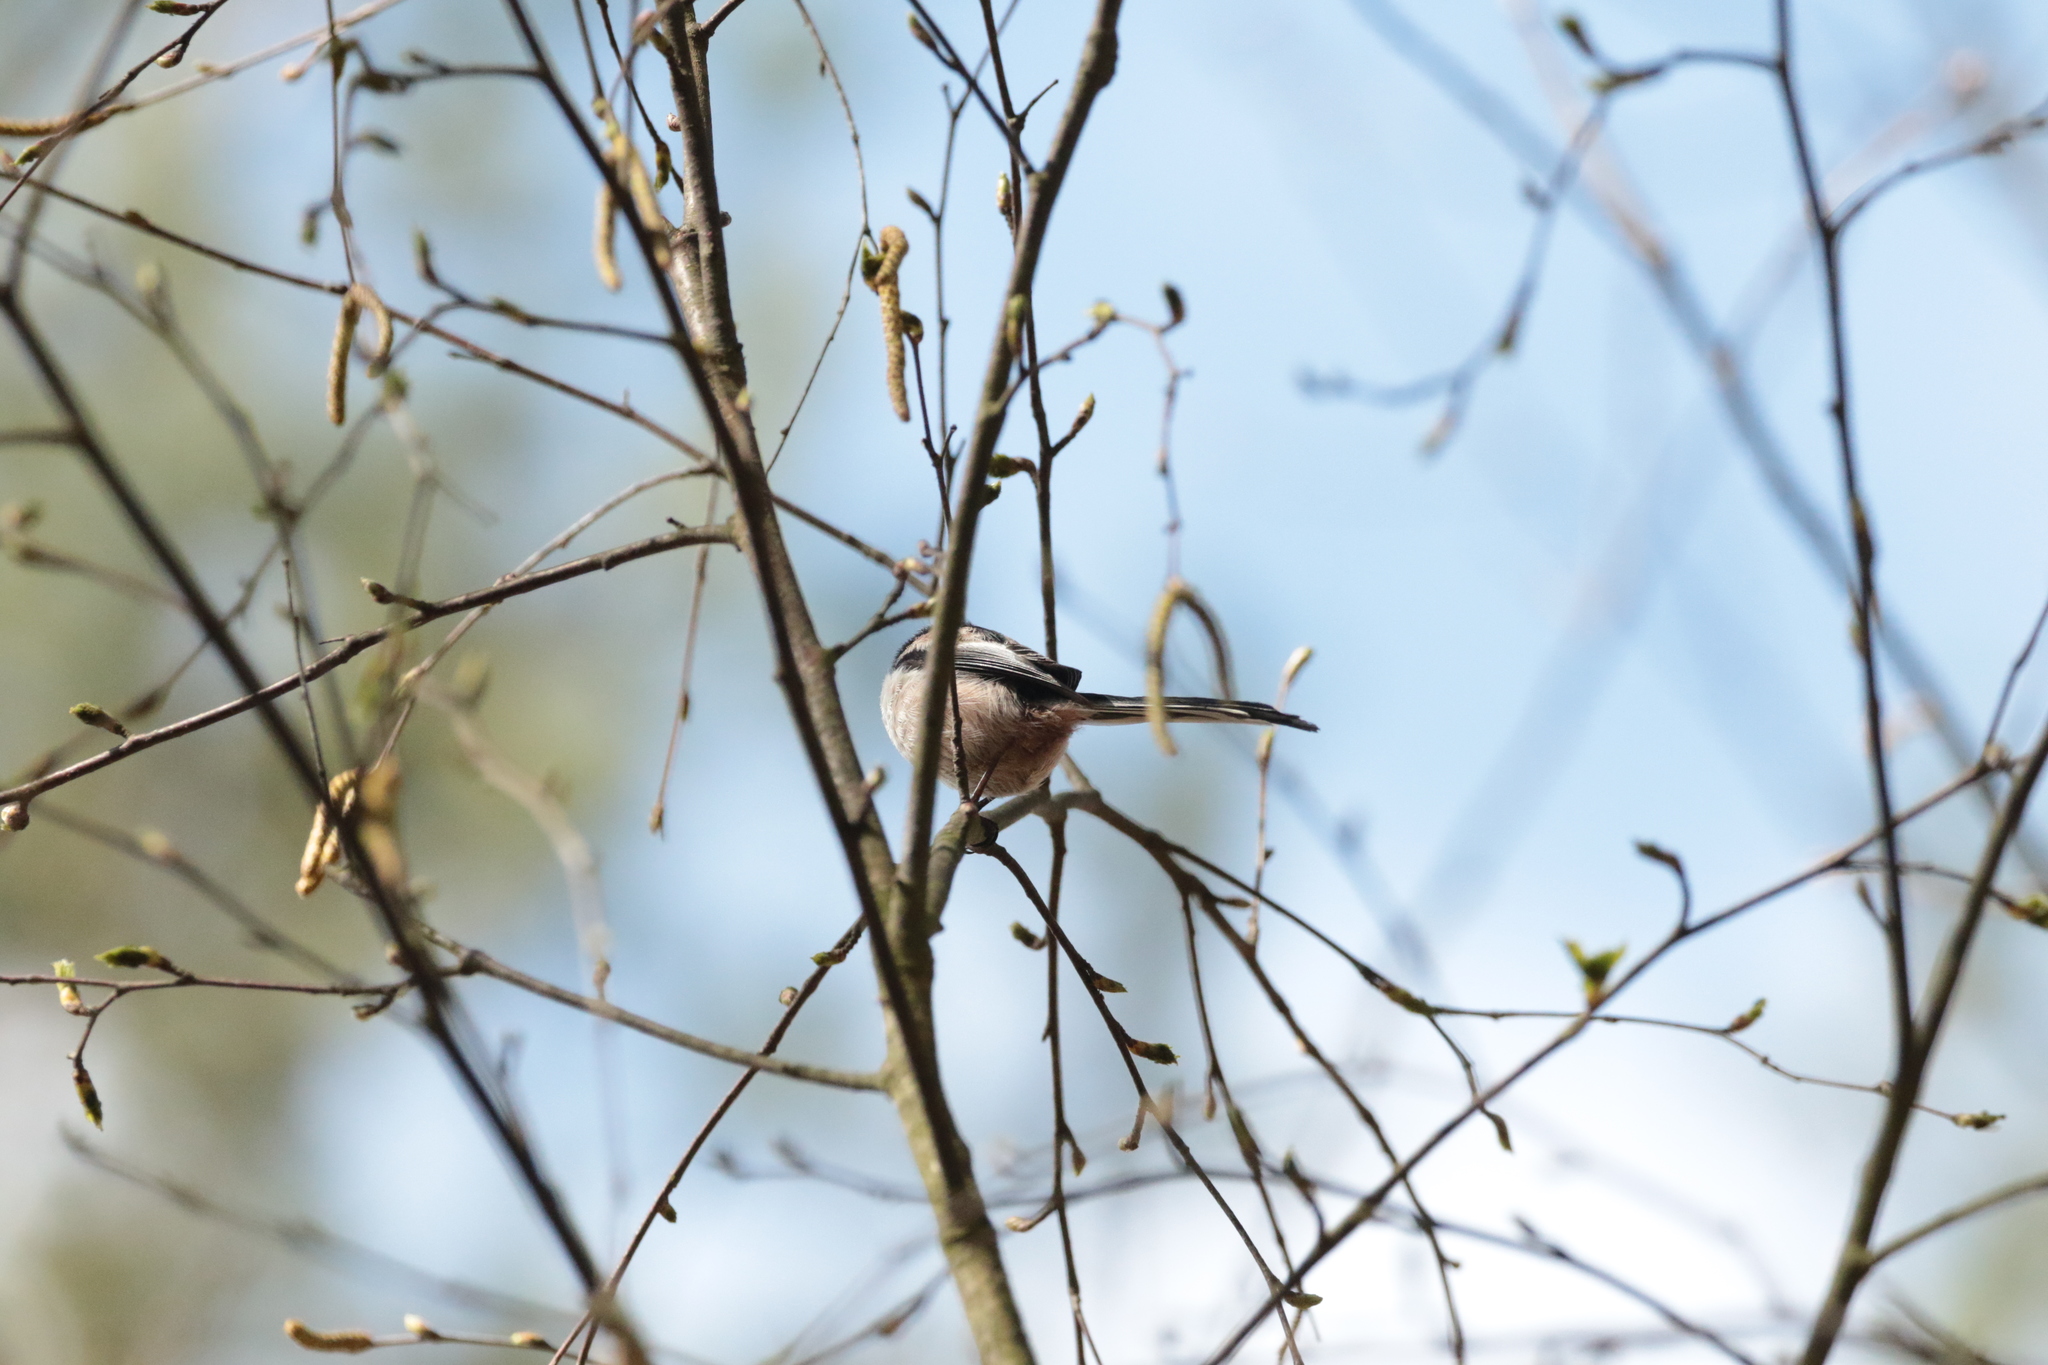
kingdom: Animalia
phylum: Chordata
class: Aves
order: Passeriformes
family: Aegithalidae
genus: Aegithalos
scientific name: Aegithalos caudatus
